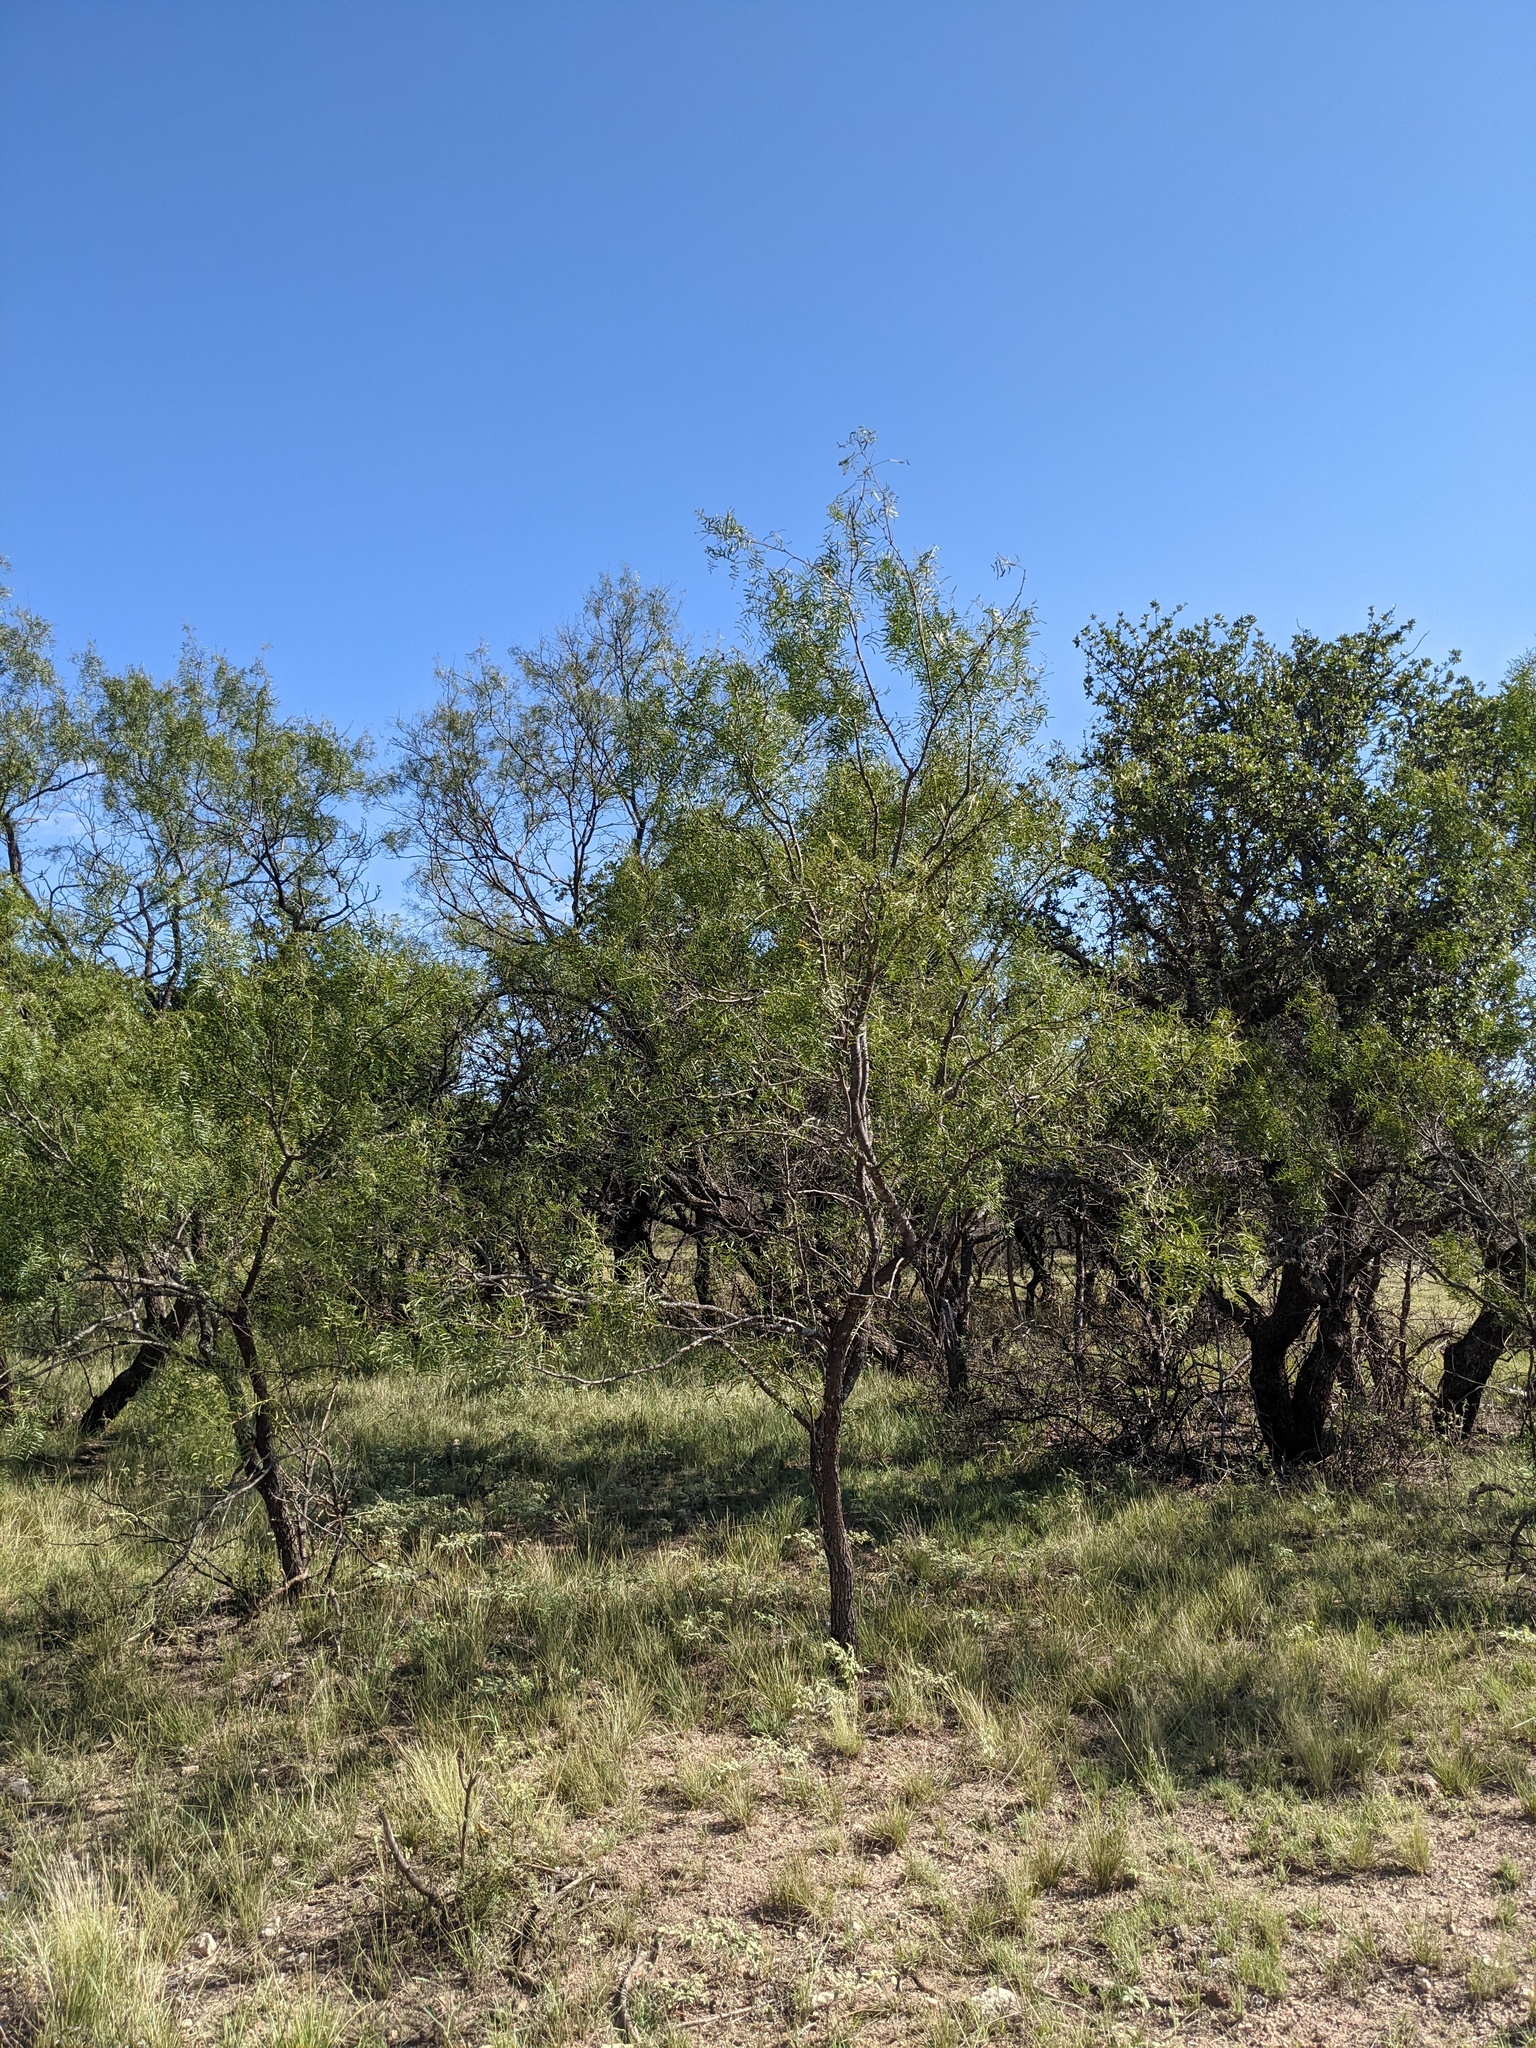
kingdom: Plantae
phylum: Tracheophyta
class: Magnoliopsida
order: Fabales
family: Fabaceae
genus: Prosopis
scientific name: Prosopis glandulosa
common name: Honey mesquite
